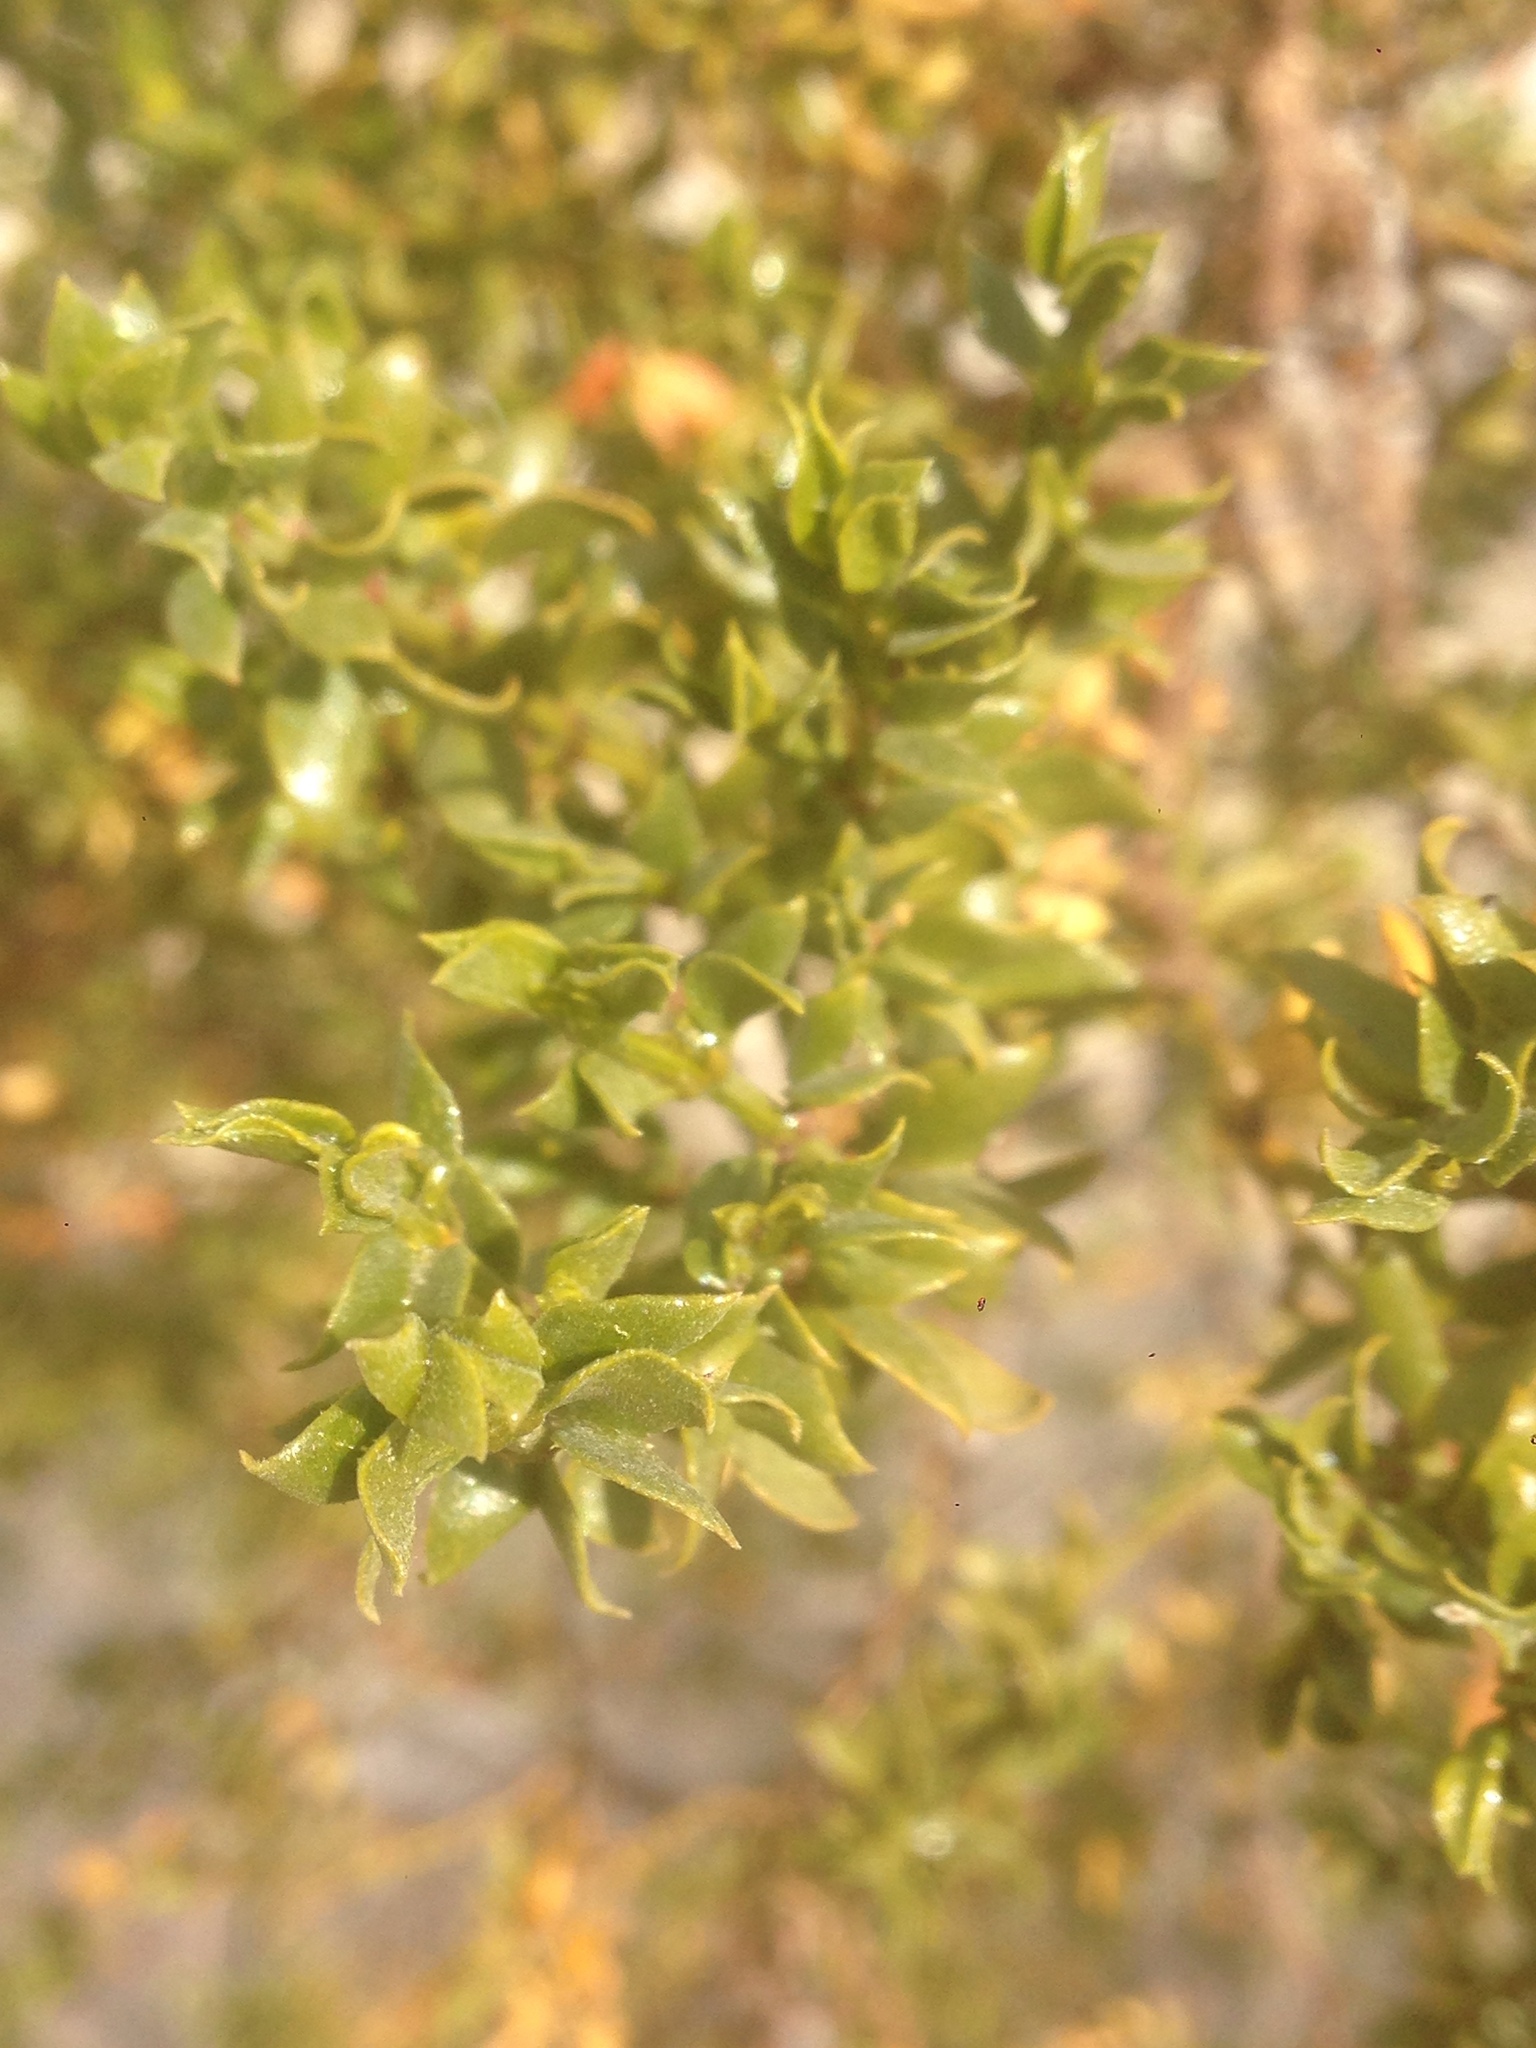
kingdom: Plantae
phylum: Tracheophyta
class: Magnoliopsida
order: Zygophyllales
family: Zygophyllaceae
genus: Larrea
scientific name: Larrea tridentata
